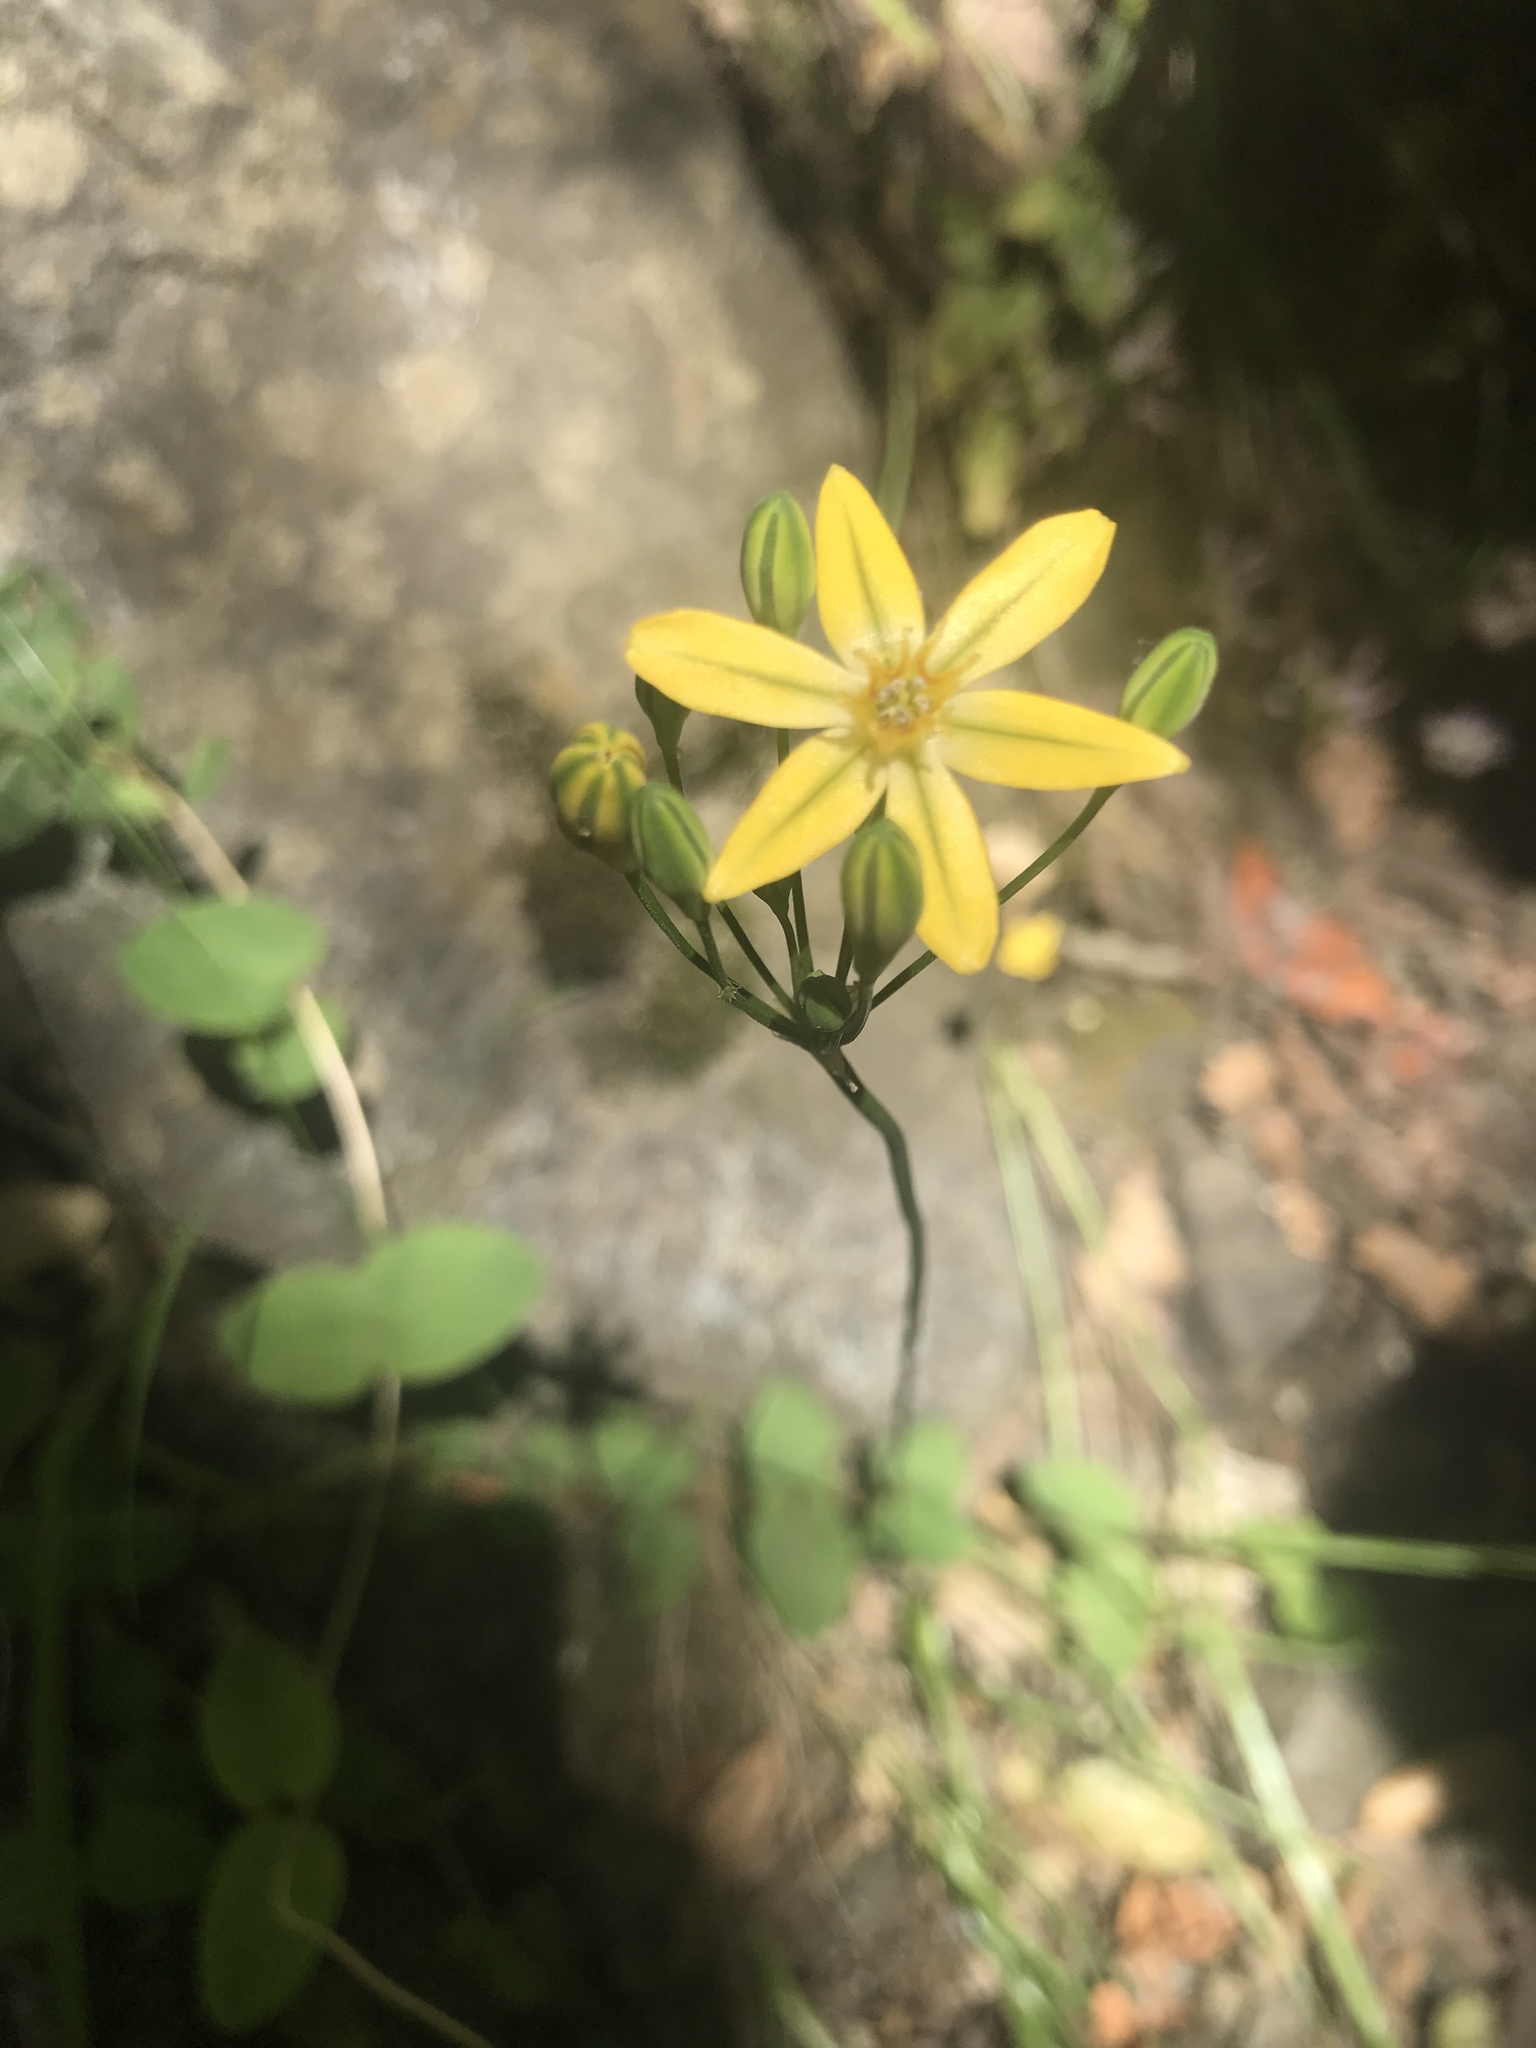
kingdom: Plantae
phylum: Tracheophyta
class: Liliopsida
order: Asparagales
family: Asparagaceae
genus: Triteleia
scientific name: Triteleia ixioides
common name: Yellow-brodiaea
